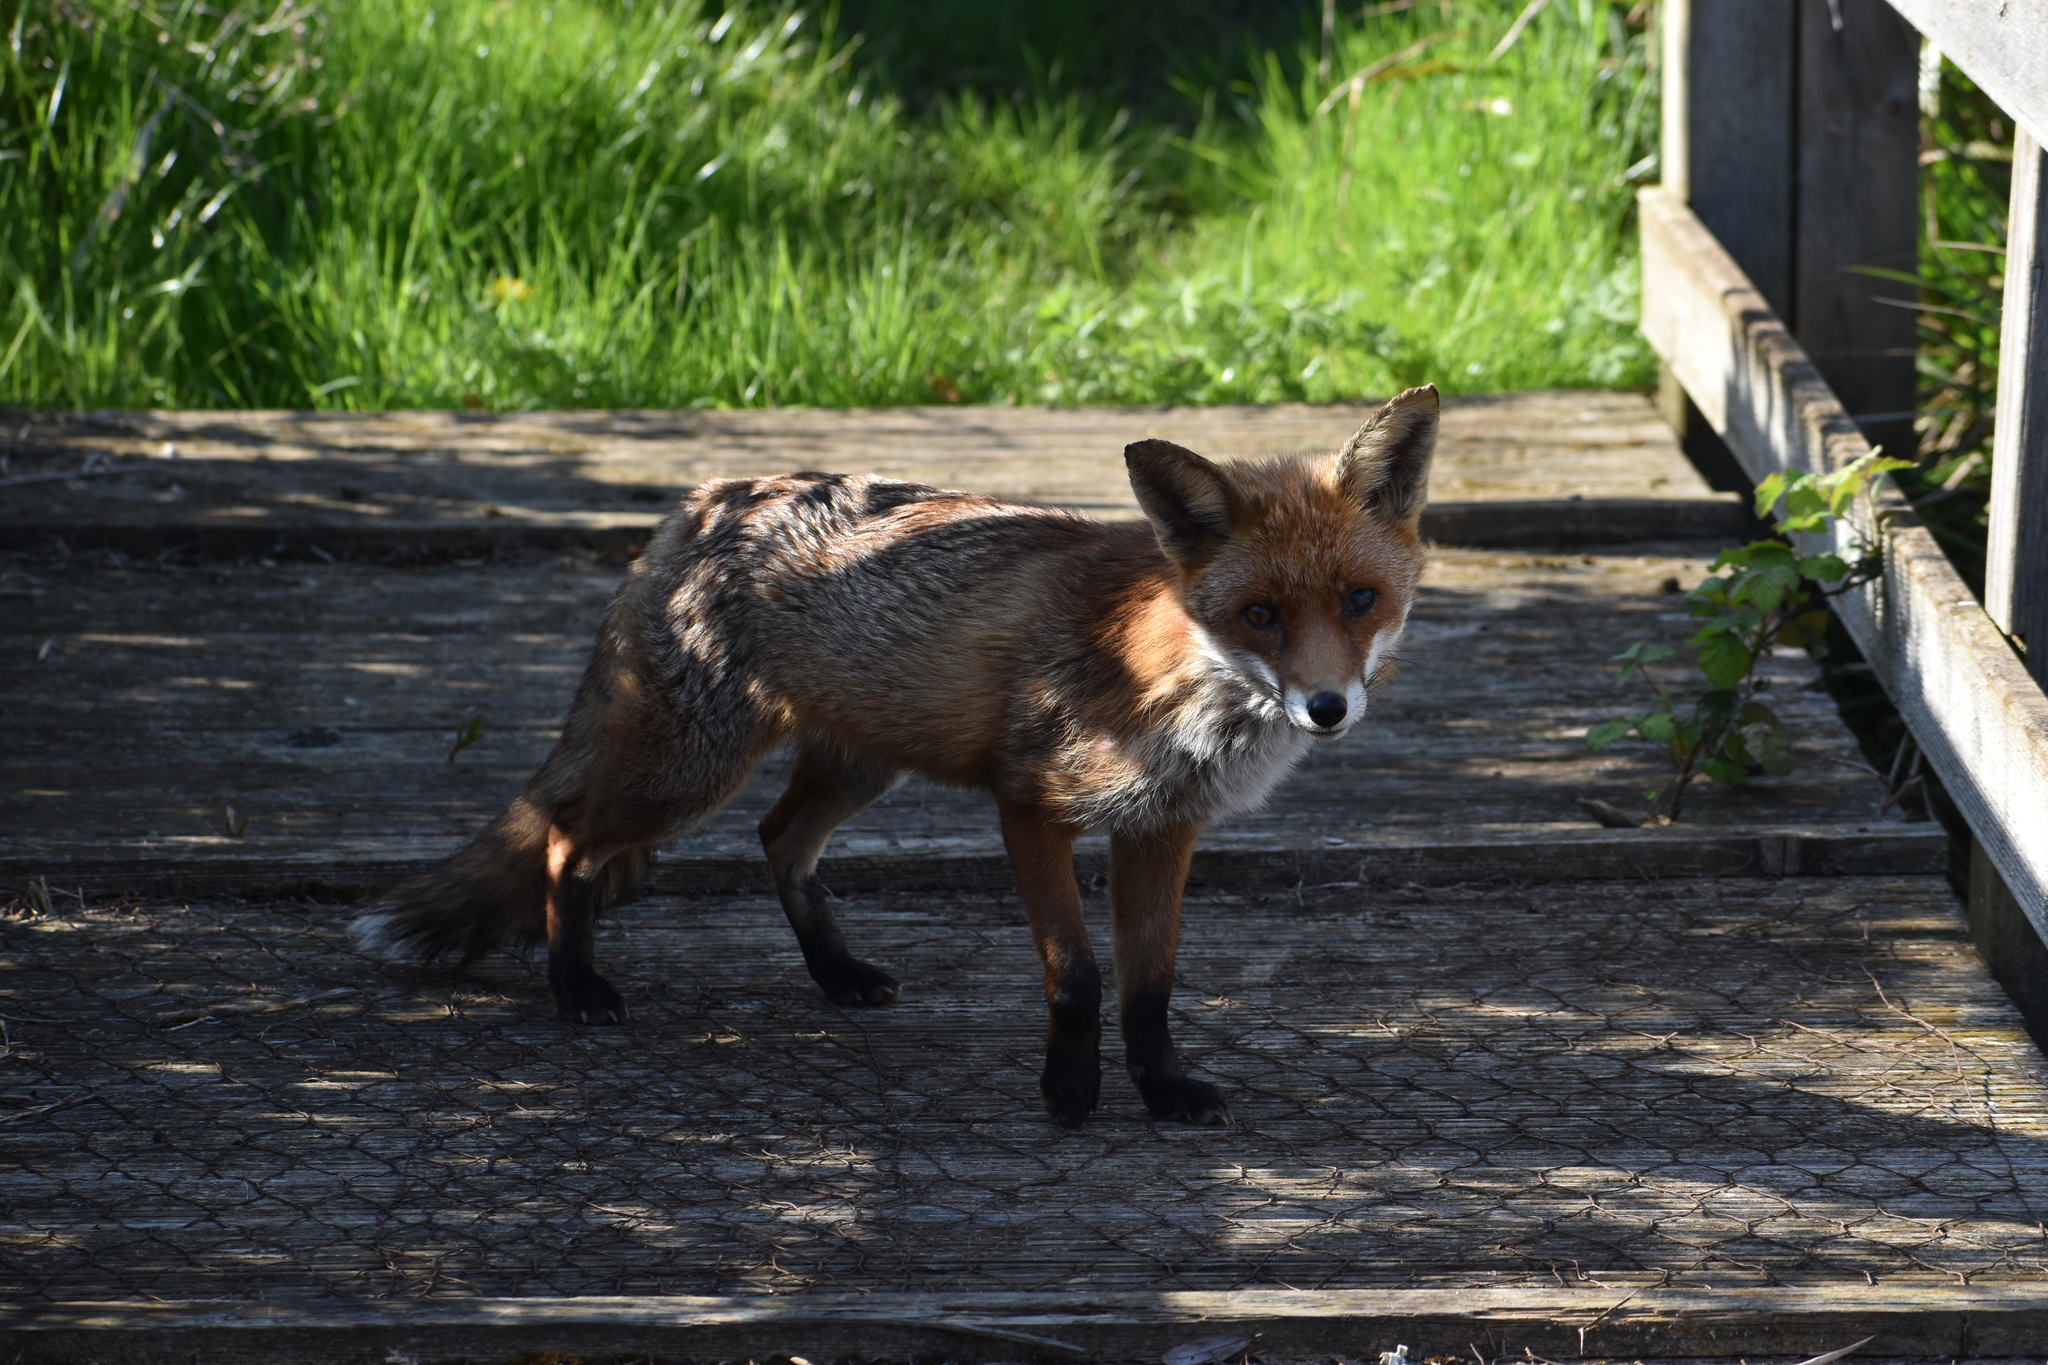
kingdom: Animalia
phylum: Chordata
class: Mammalia
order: Carnivora
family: Canidae
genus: Vulpes
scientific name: Vulpes vulpes
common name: Red fox
